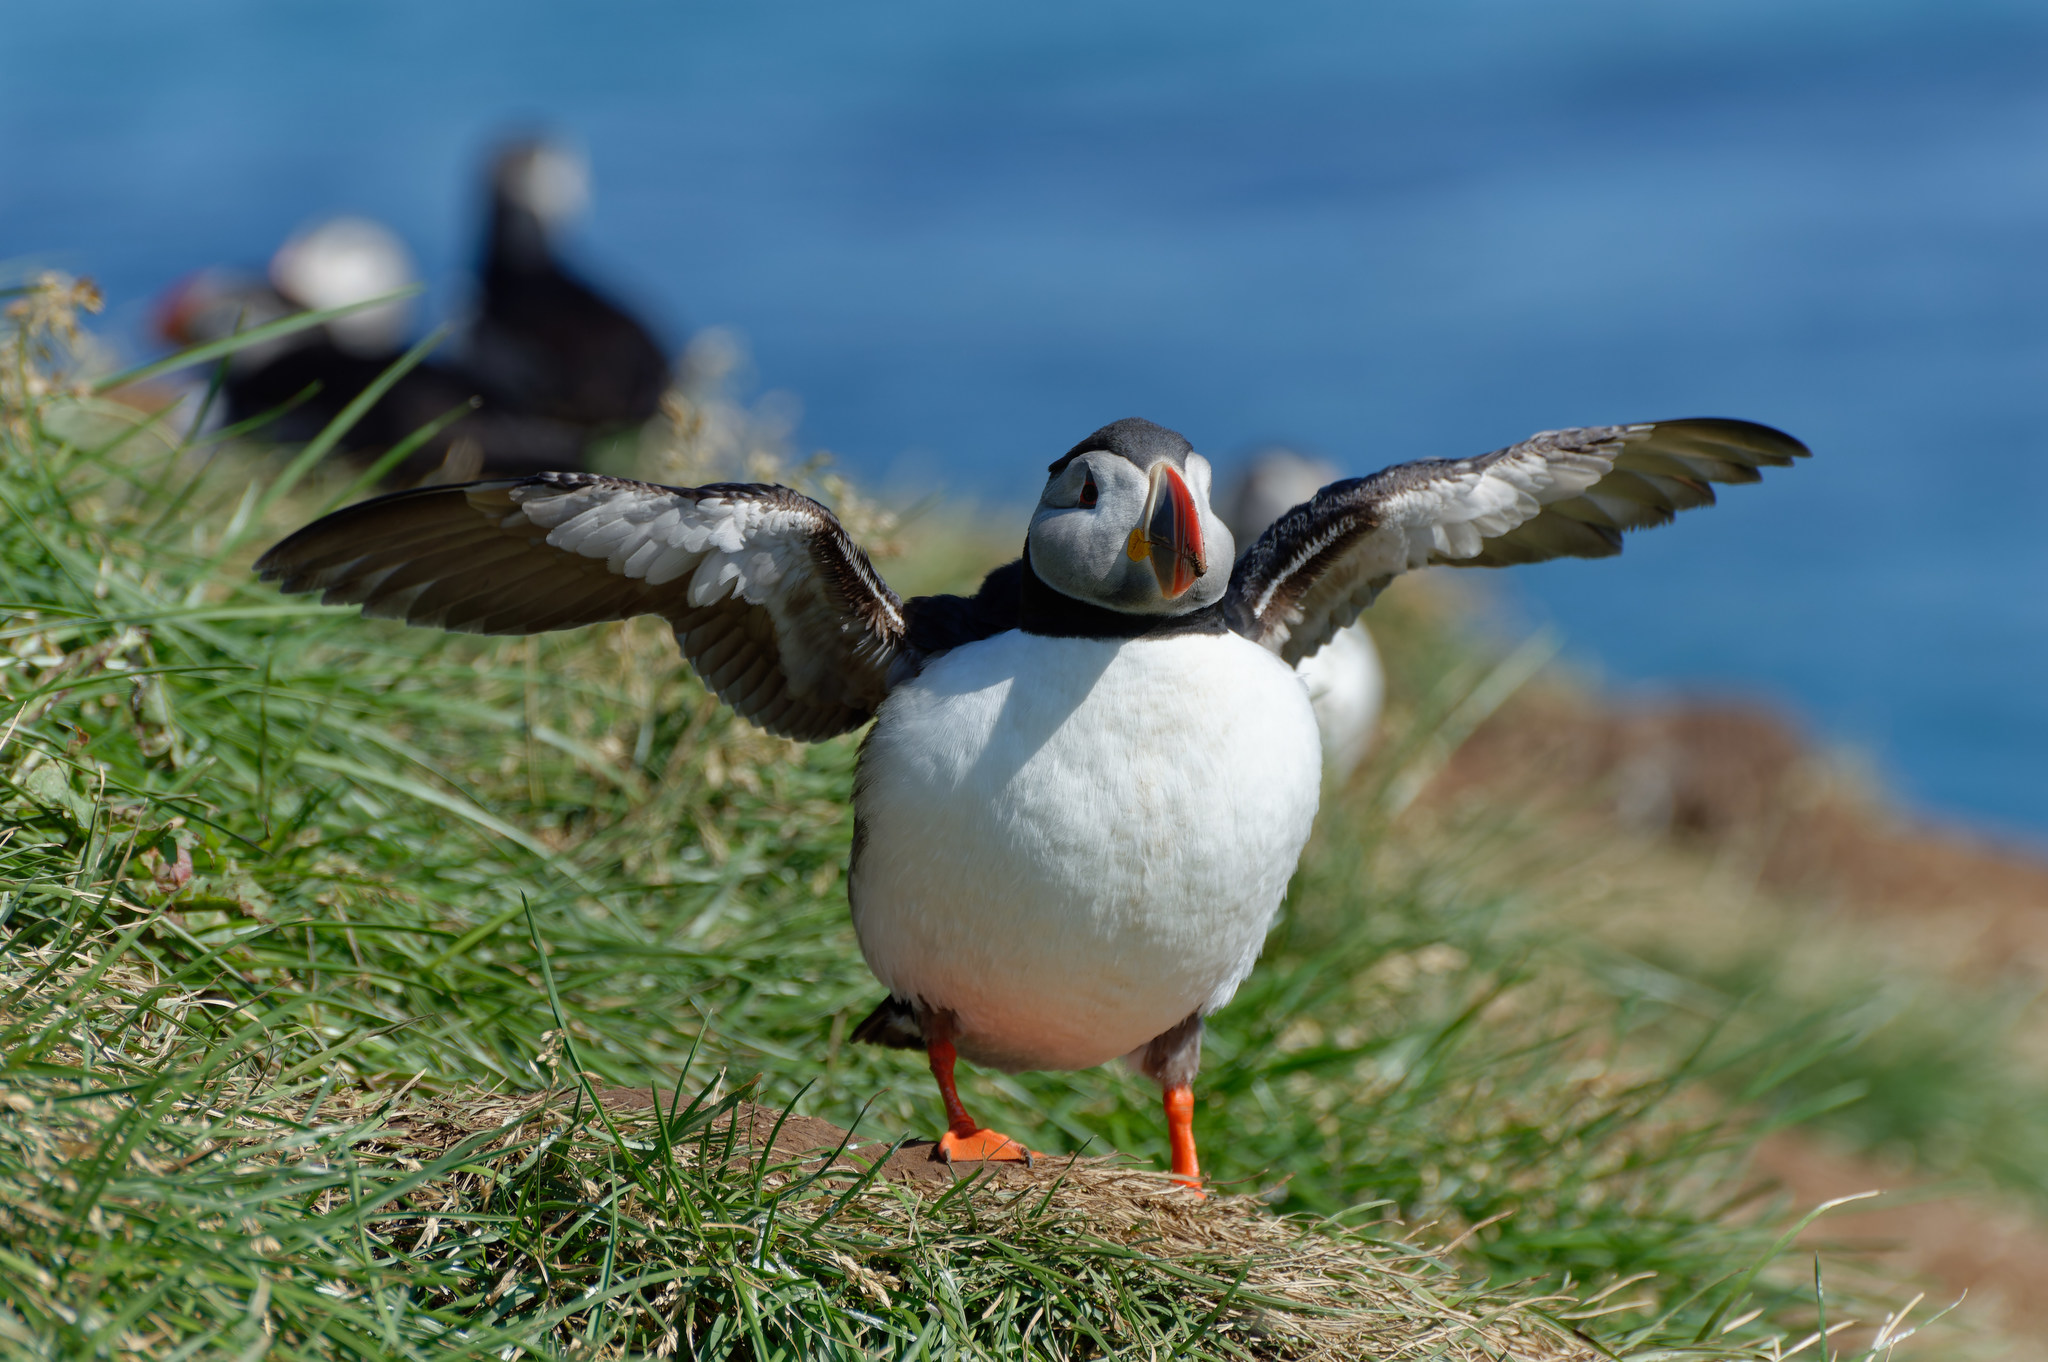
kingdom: Animalia
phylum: Chordata
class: Aves
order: Charadriiformes
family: Alcidae
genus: Fratercula
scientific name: Fratercula arctica
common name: Atlantic puffin
